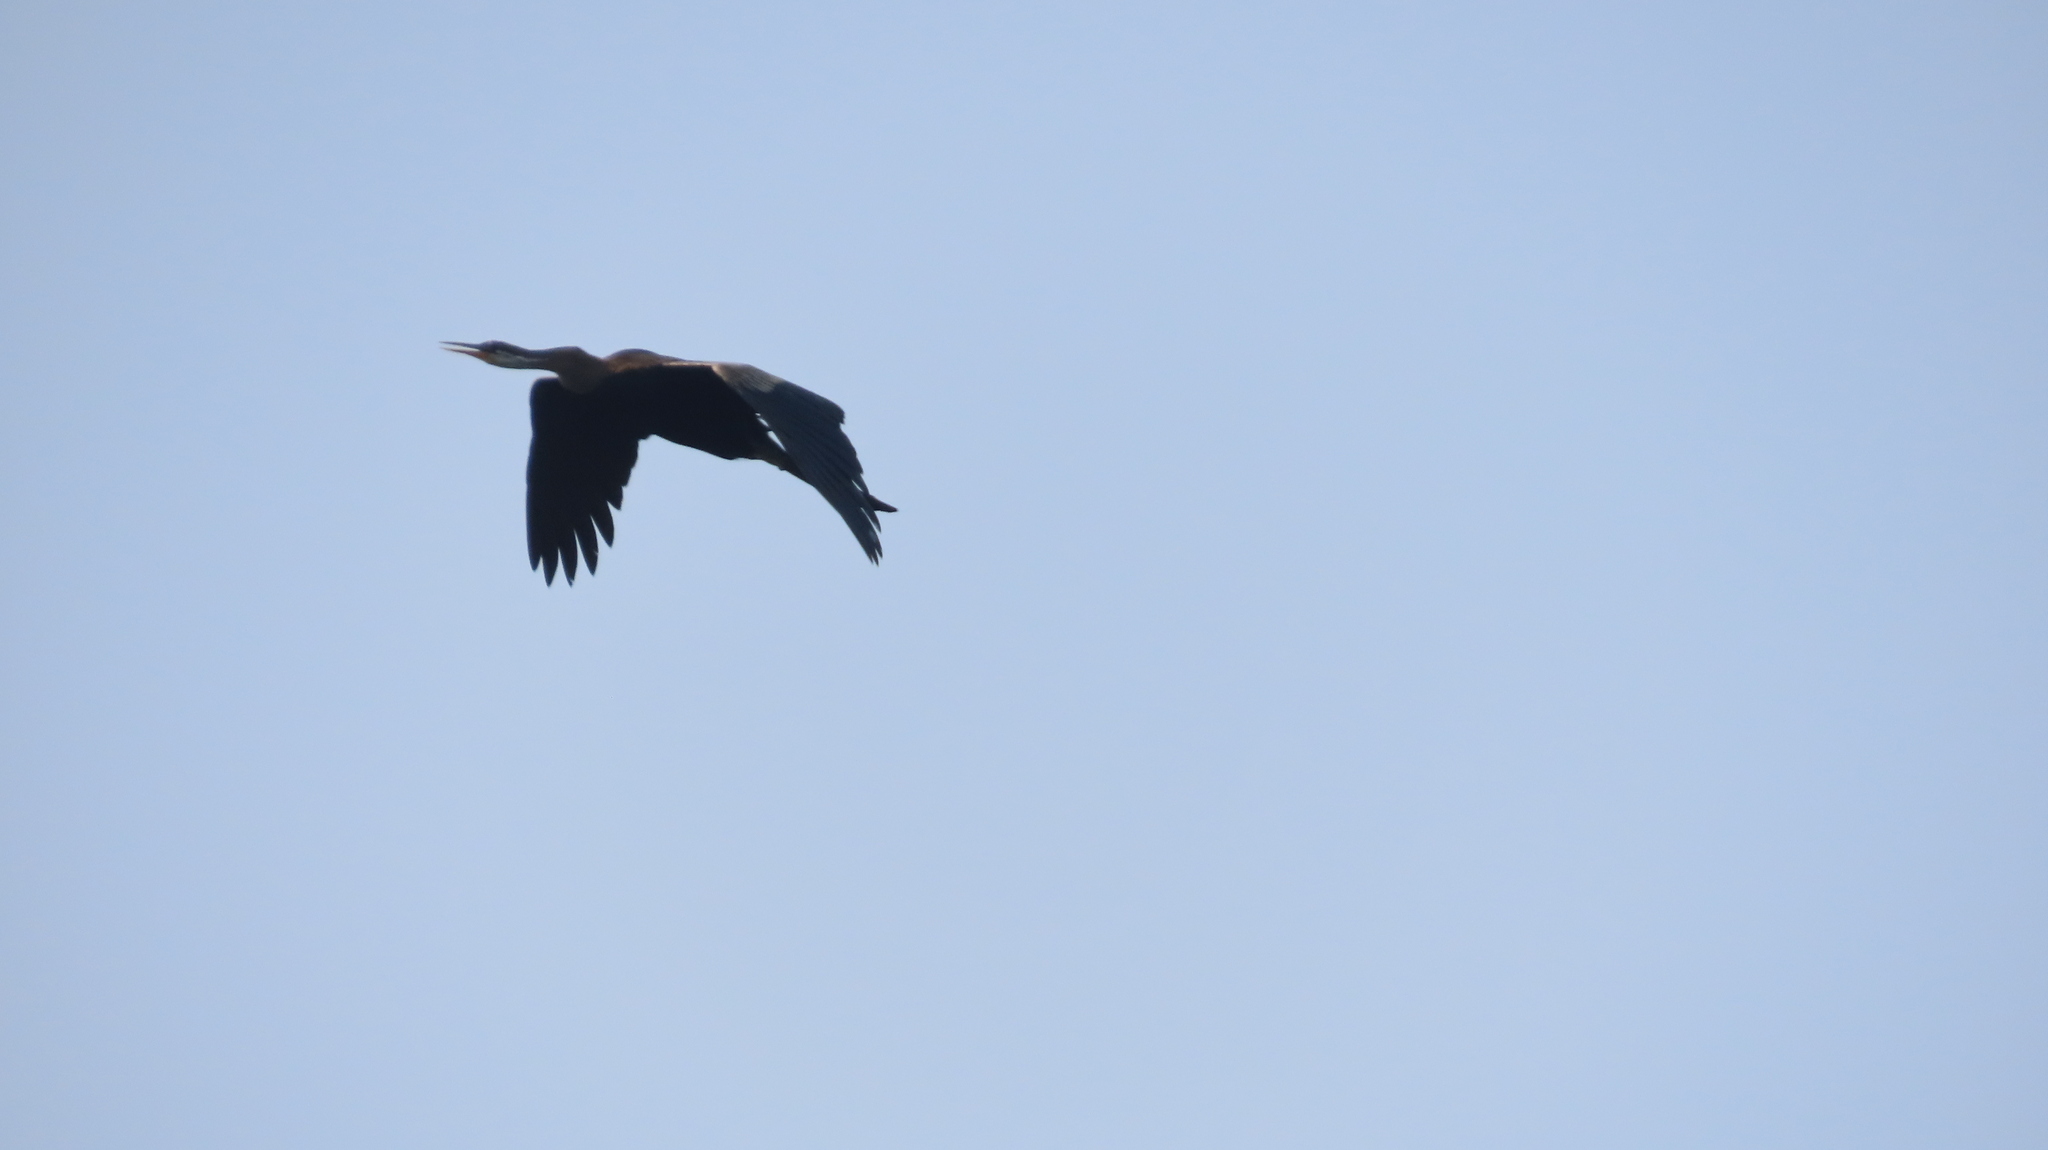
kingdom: Animalia
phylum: Chordata
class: Aves
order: Suliformes
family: Anhingidae
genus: Anhinga
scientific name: Anhinga melanogaster
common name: Oriental darter
